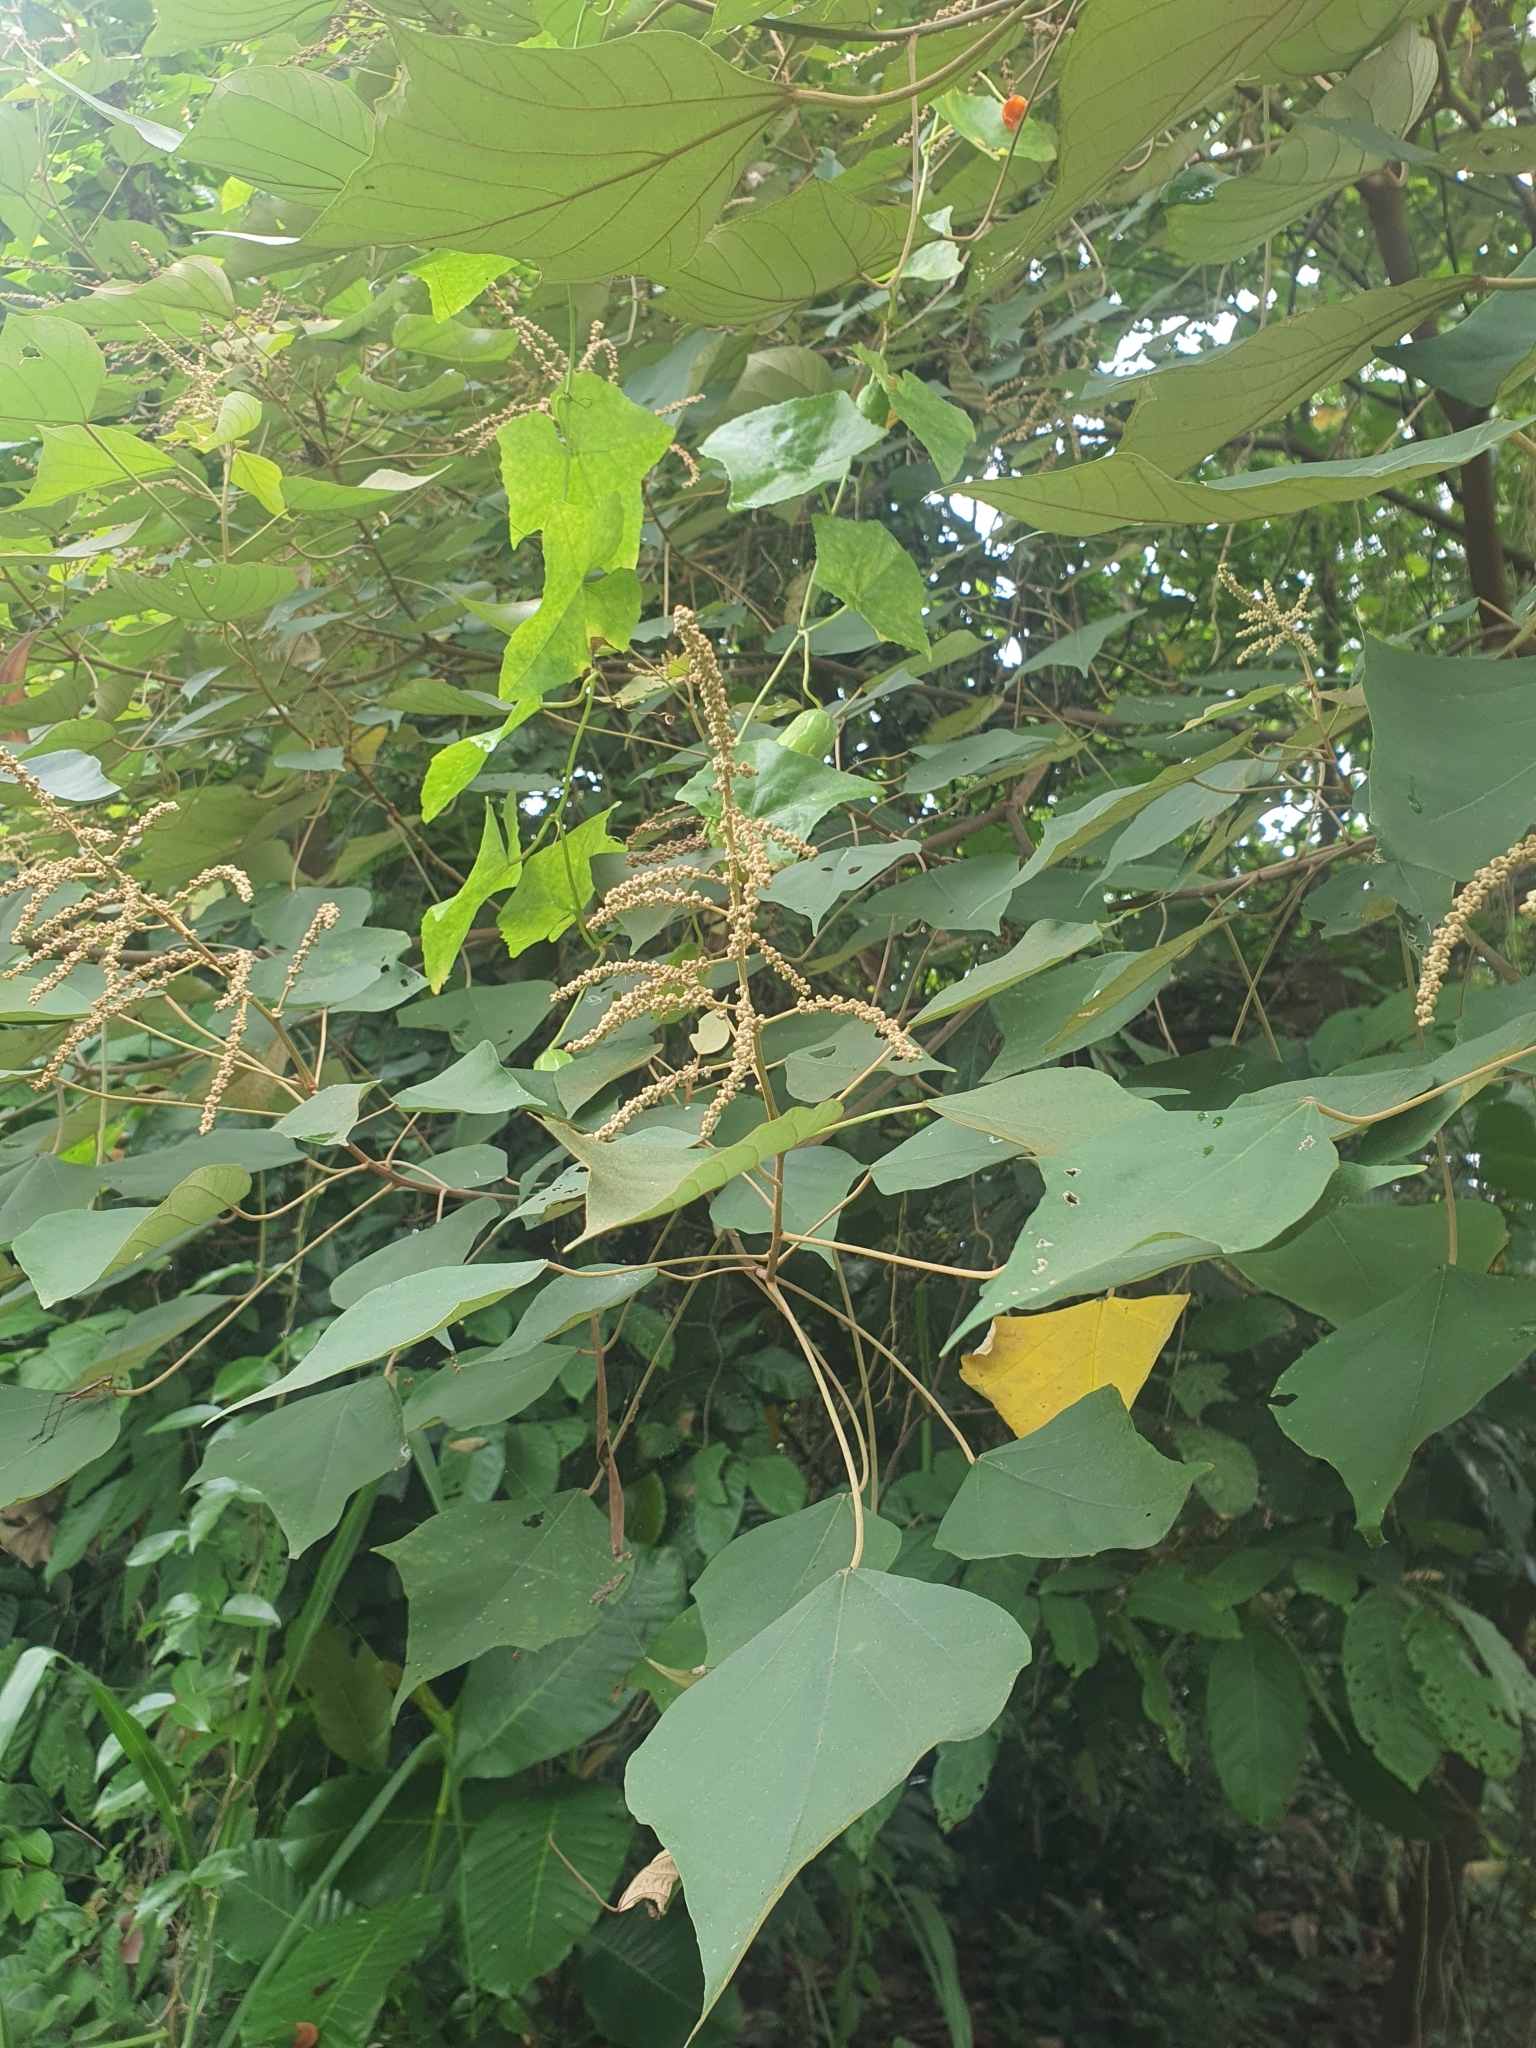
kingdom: Plantae
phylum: Tracheophyta
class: Magnoliopsida
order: Malpighiales
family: Euphorbiaceae
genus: Mallotus
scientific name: Mallotus paniculatus
